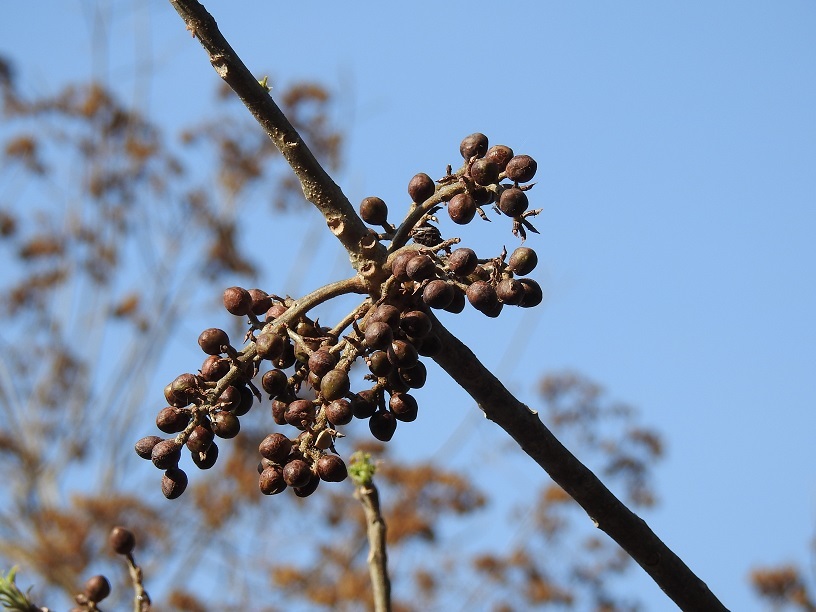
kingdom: Plantae
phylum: Tracheophyta
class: Magnoliopsida
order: Sapindales
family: Burseraceae
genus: Bursera
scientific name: Bursera simaruba
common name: Turpentine tree
